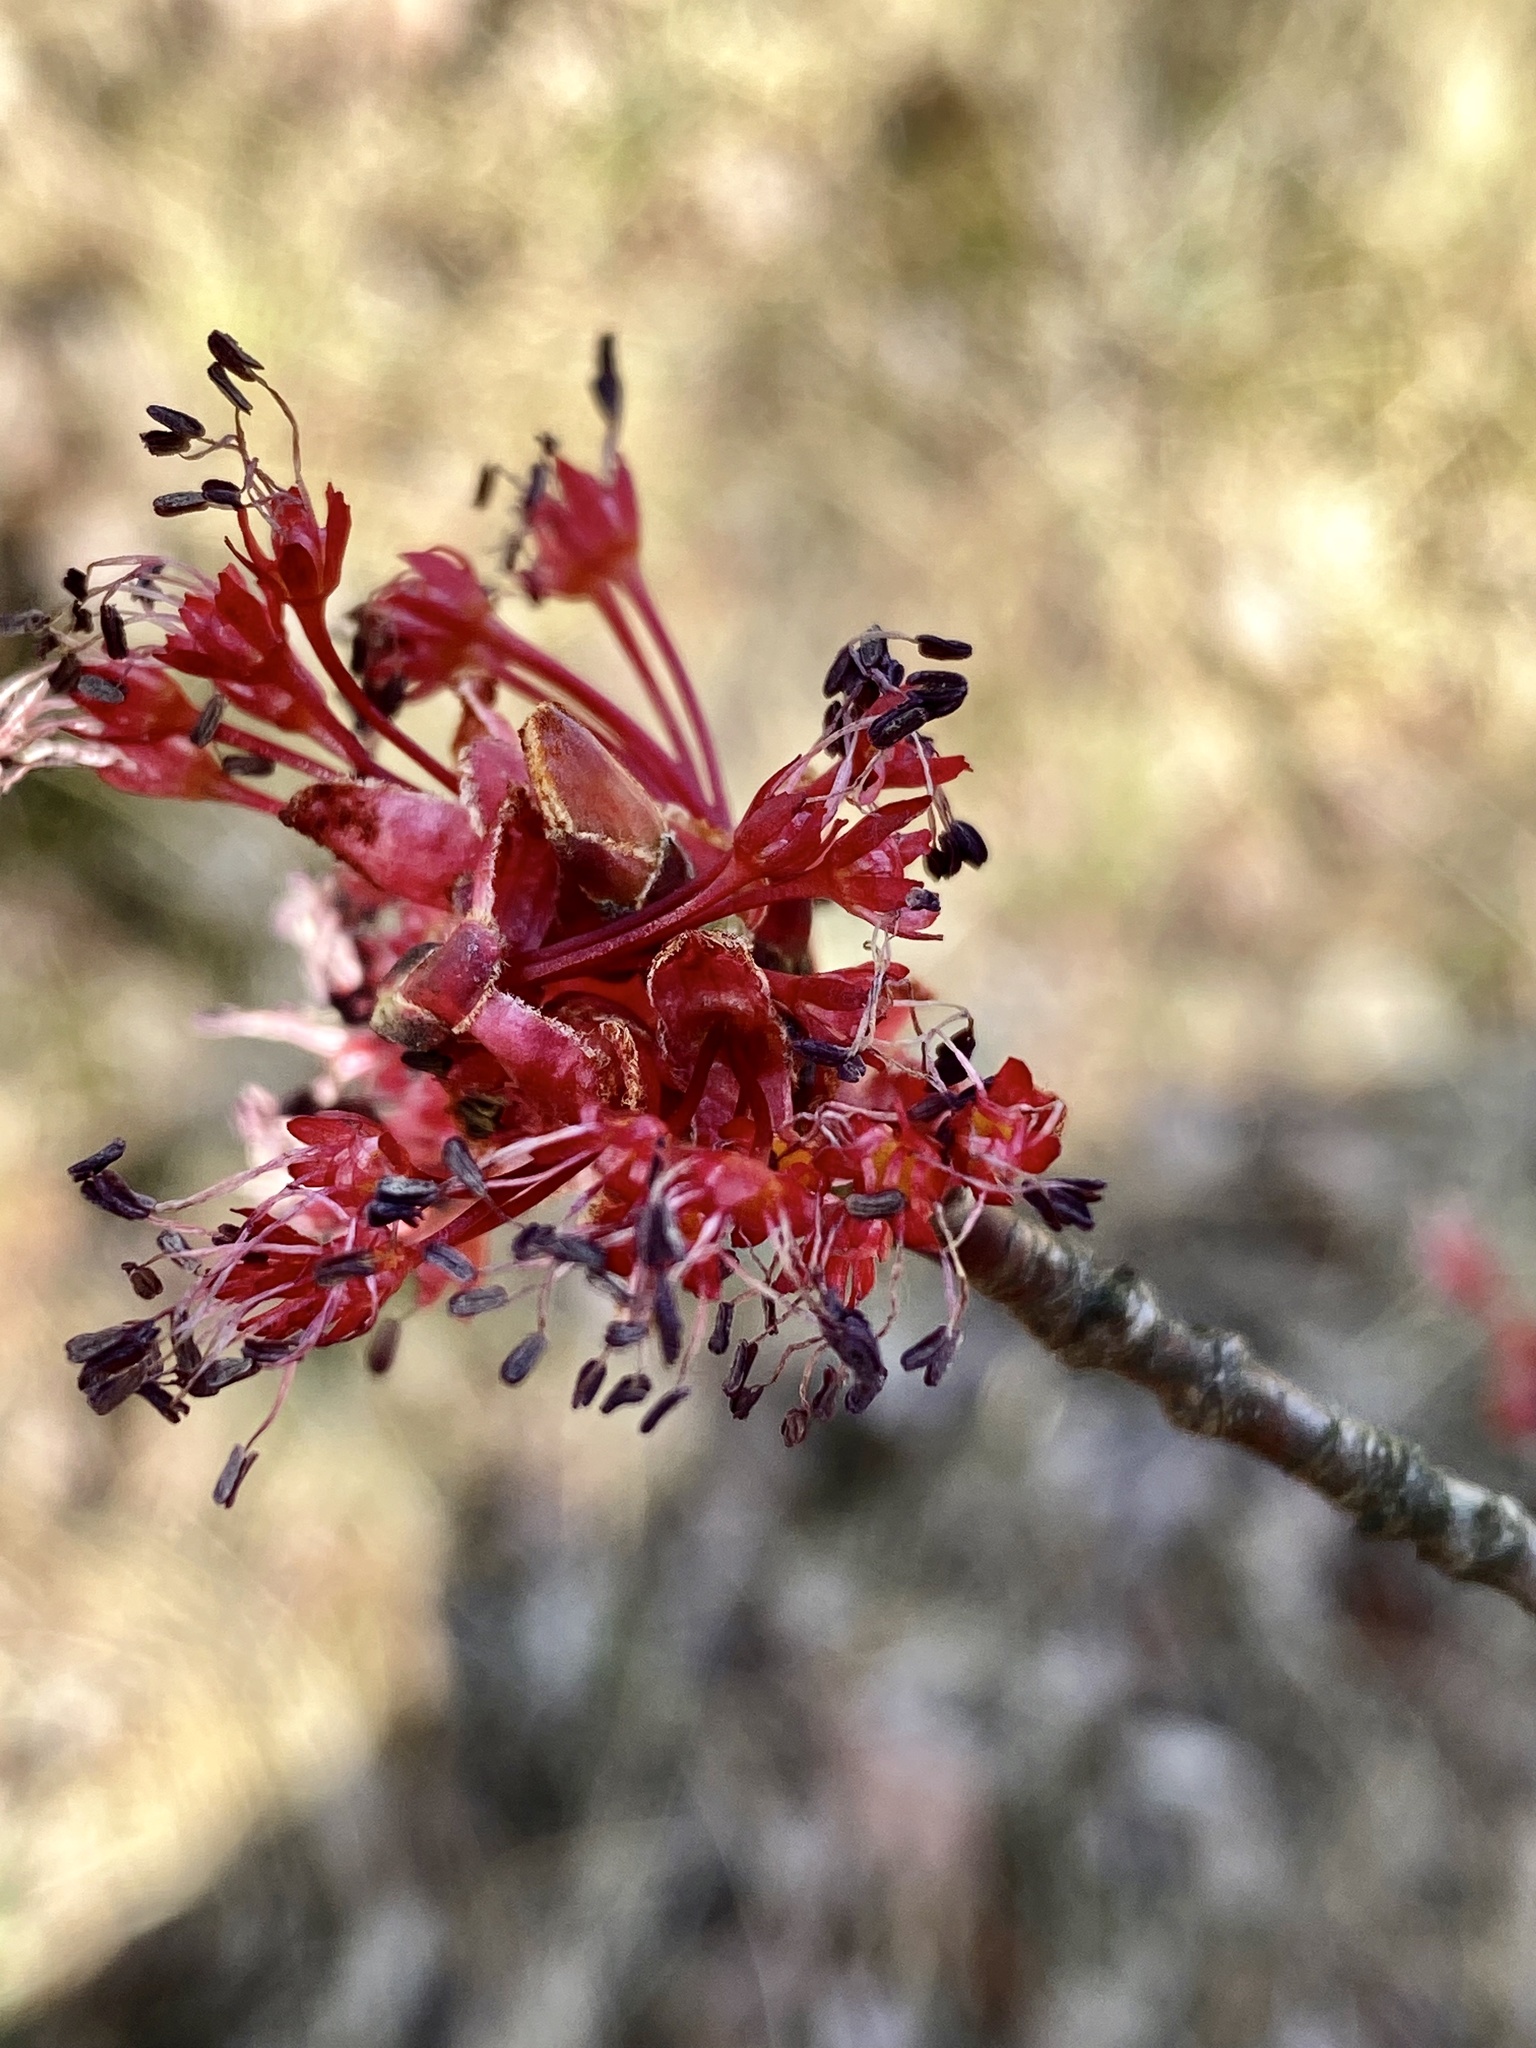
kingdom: Plantae
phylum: Tracheophyta
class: Magnoliopsida
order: Sapindales
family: Sapindaceae
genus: Acer
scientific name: Acer rubrum
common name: Red maple
